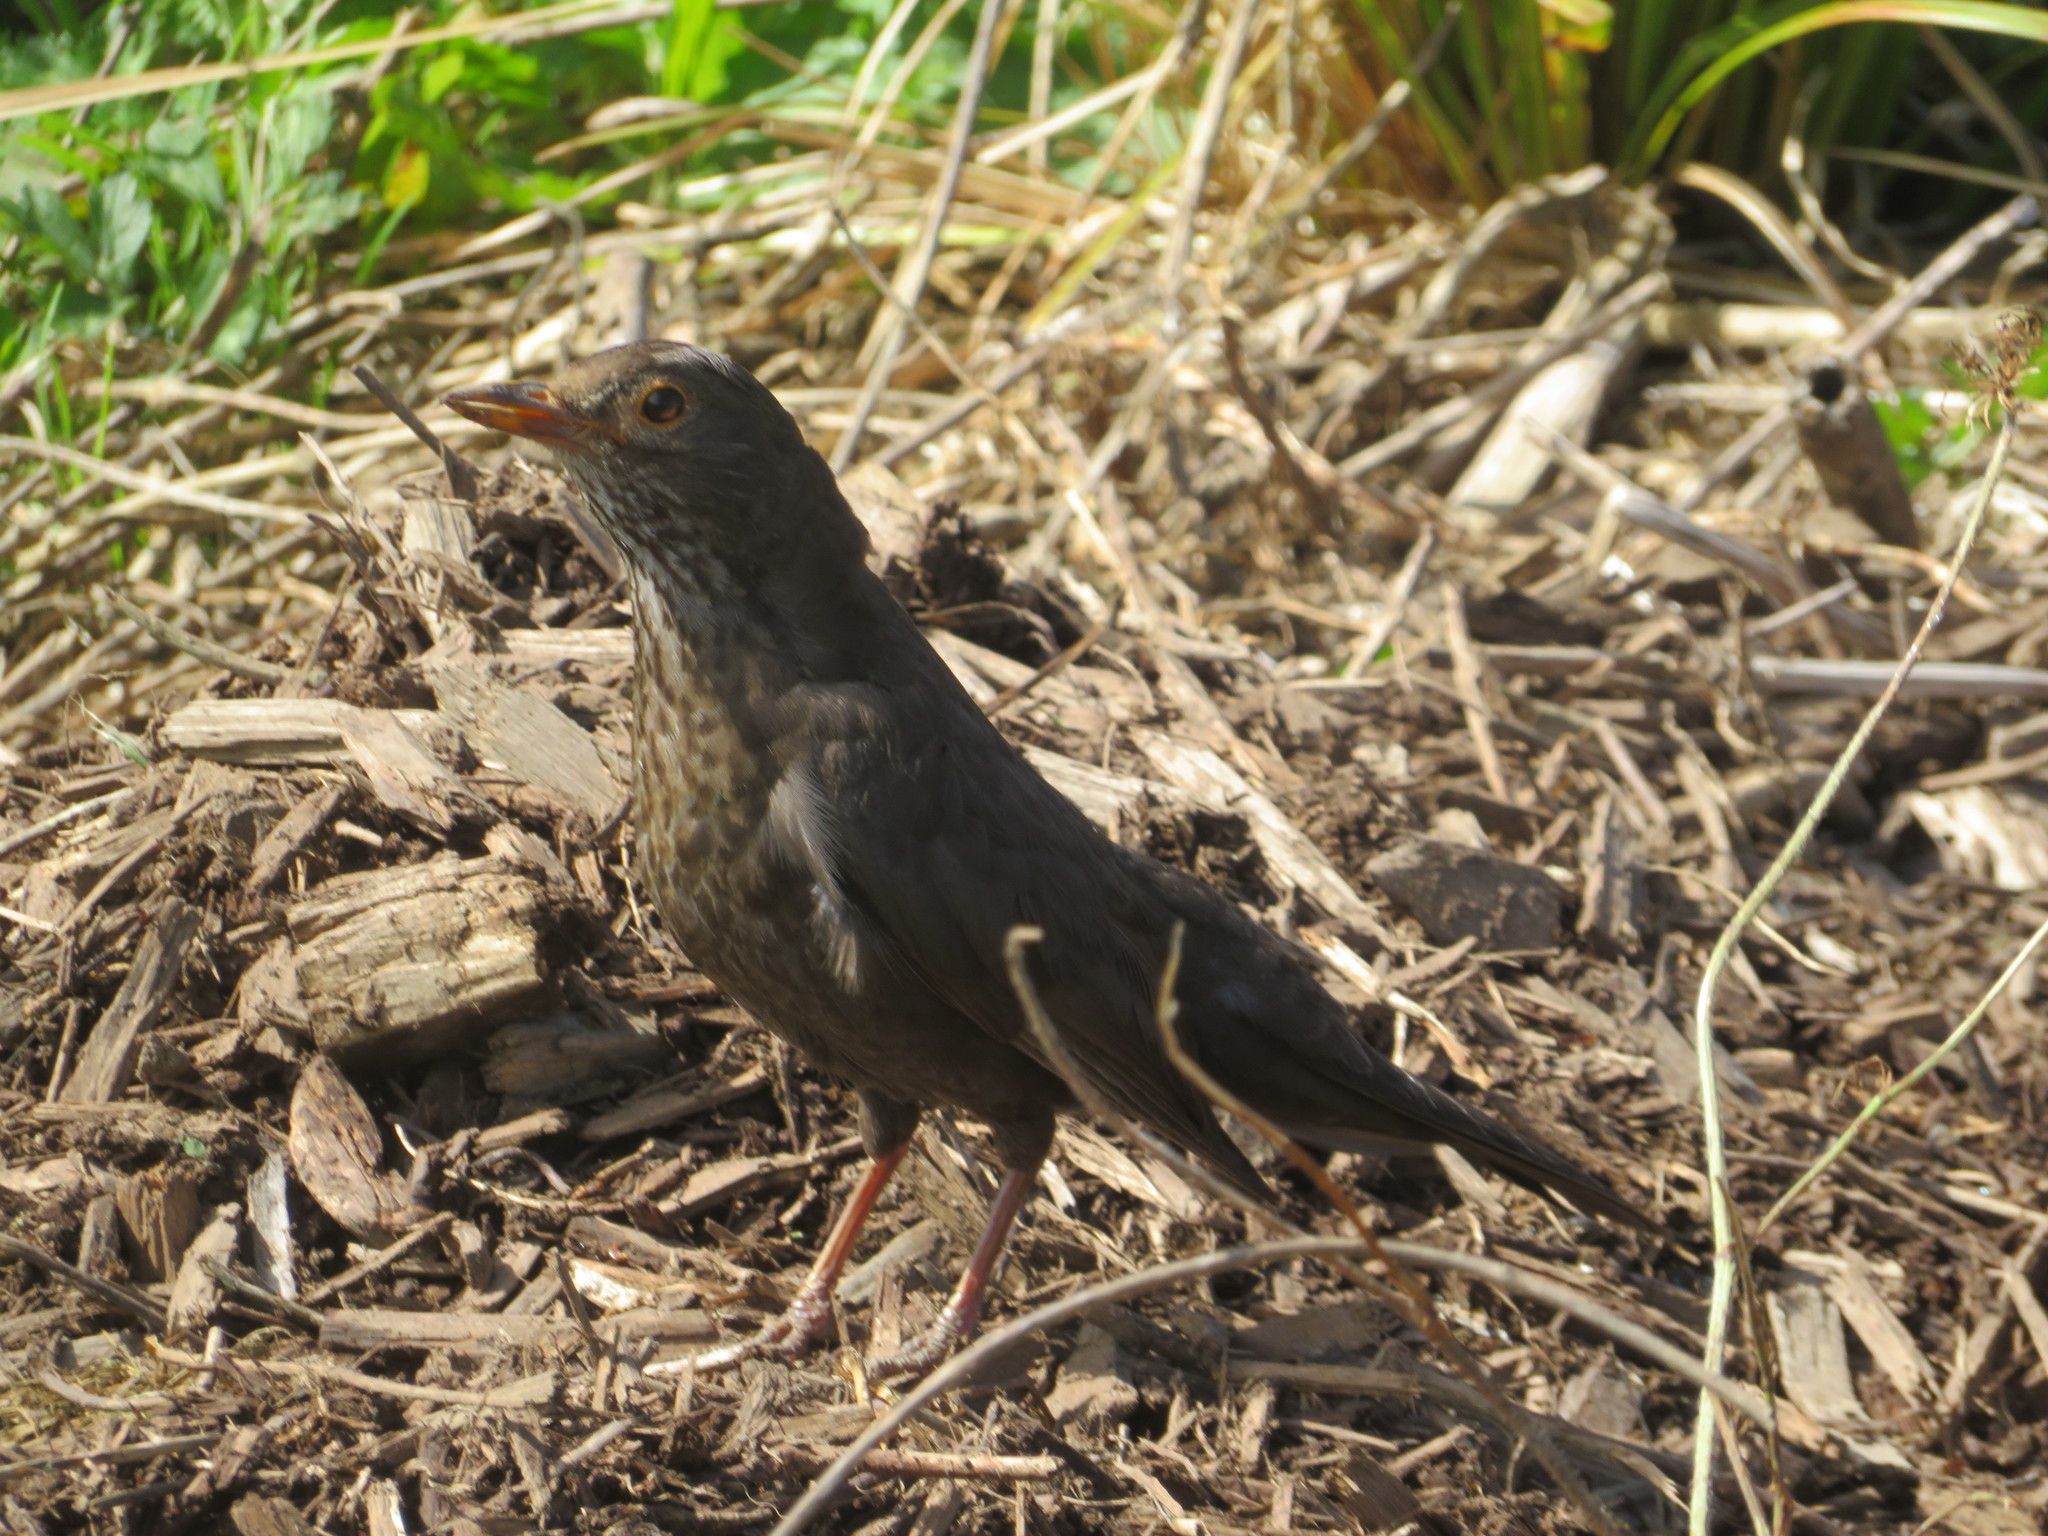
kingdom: Animalia
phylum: Chordata
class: Aves
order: Passeriformes
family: Turdidae
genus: Turdus
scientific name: Turdus merula
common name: Common blackbird
